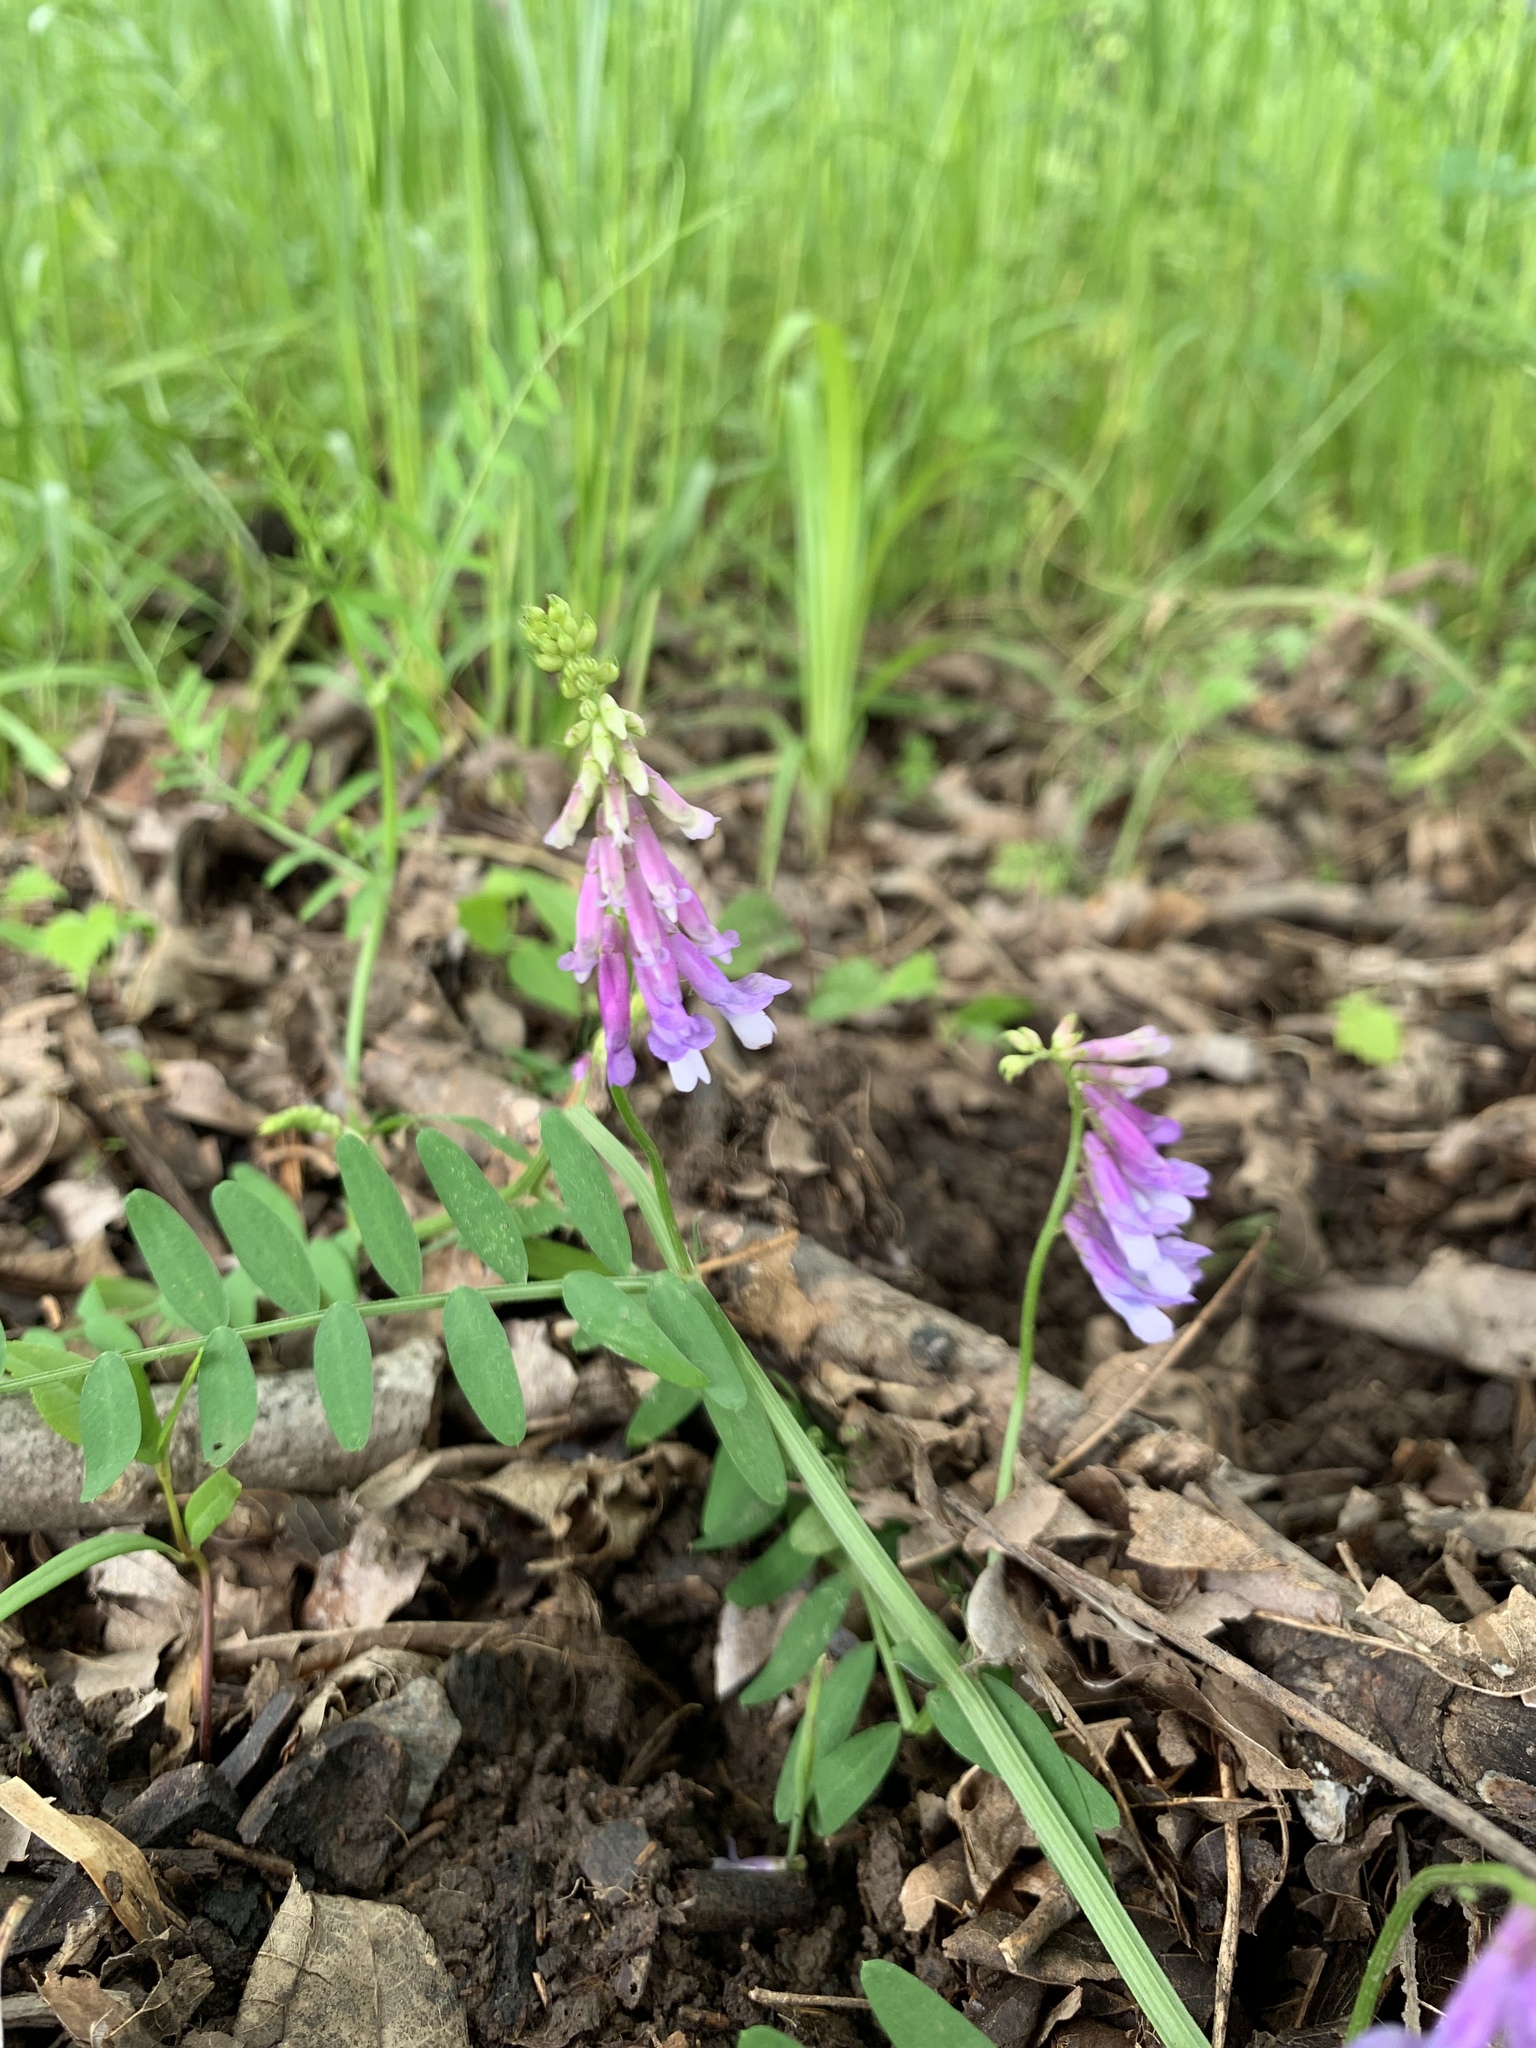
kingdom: Plantae
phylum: Tracheophyta
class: Magnoliopsida
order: Fabales
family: Fabaceae
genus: Vicia
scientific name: Vicia villosa
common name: Fodder vetch
